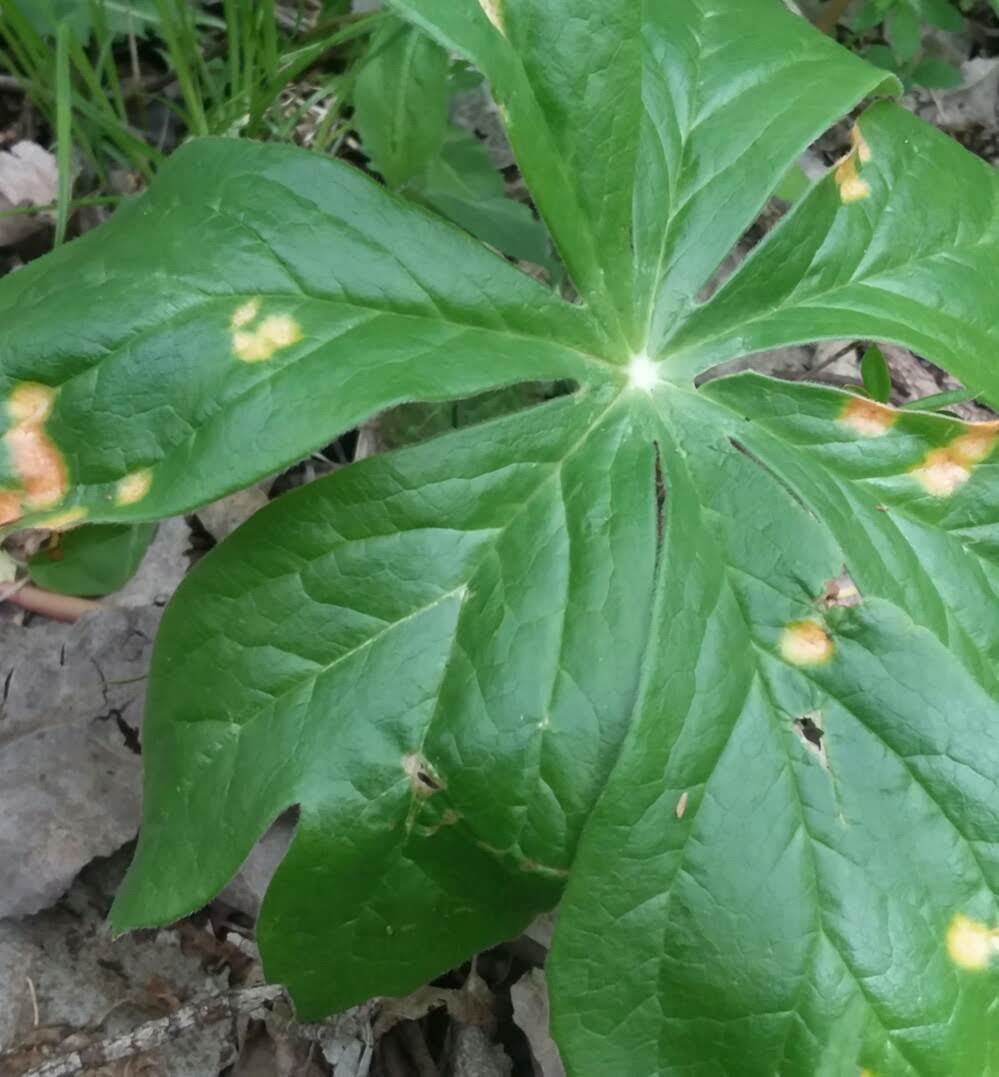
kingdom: Fungi
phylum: Basidiomycota
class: Pucciniomycetes
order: Pucciniales
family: Pucciniaceae
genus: Puccinia
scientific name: Puccinia podophylli
